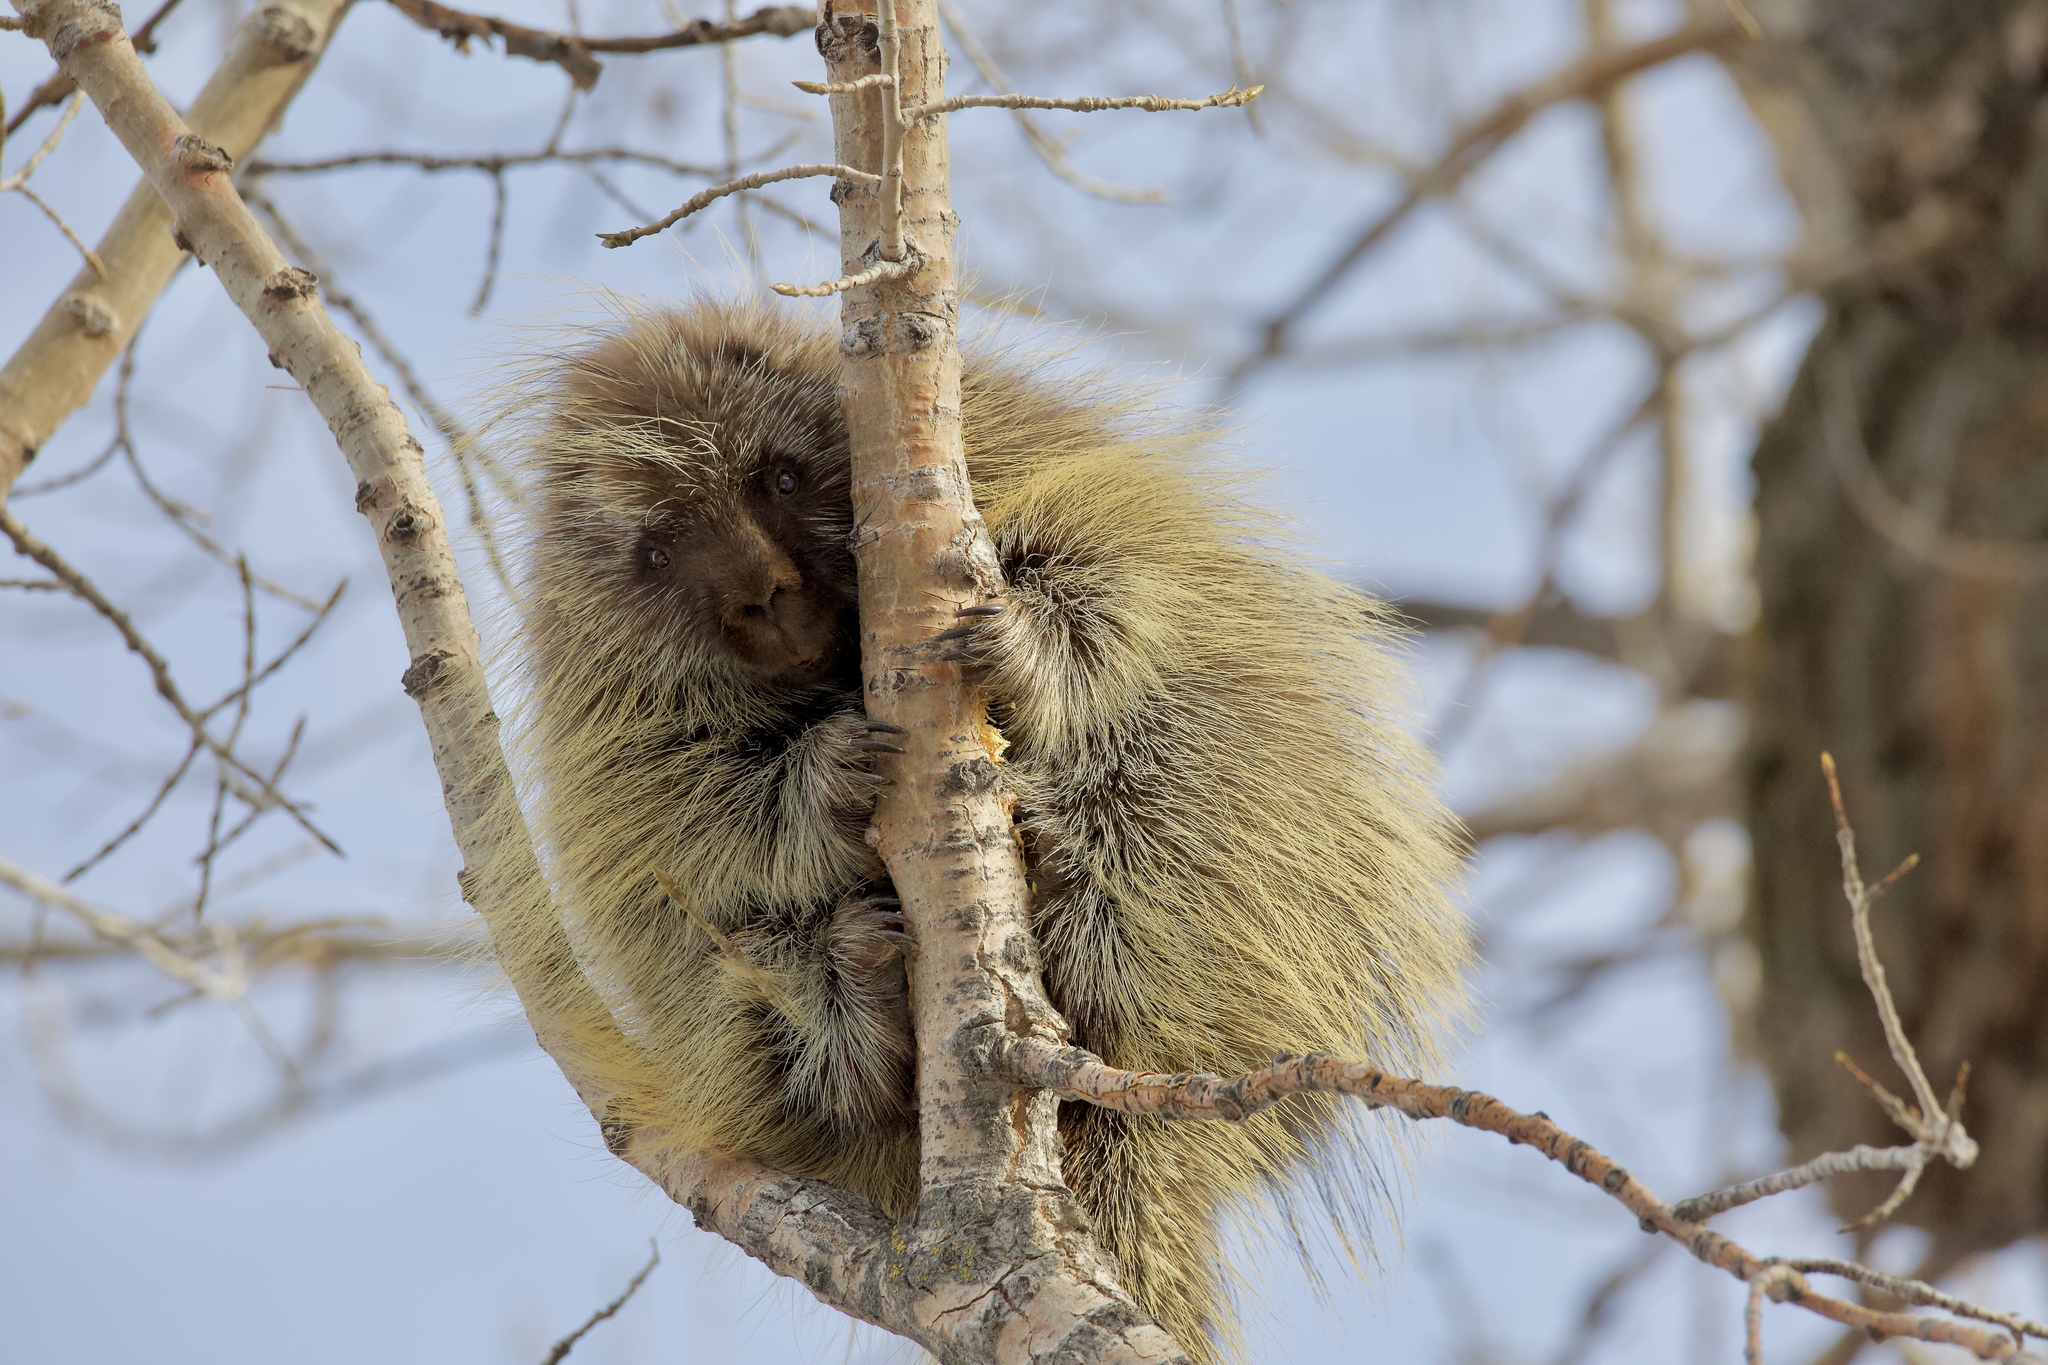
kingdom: Animalia
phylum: Chordata
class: Mammalia
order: Rodentia
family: Erethizontidae
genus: Erethizon
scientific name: Erethizon dorsatus
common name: North american porcupine
